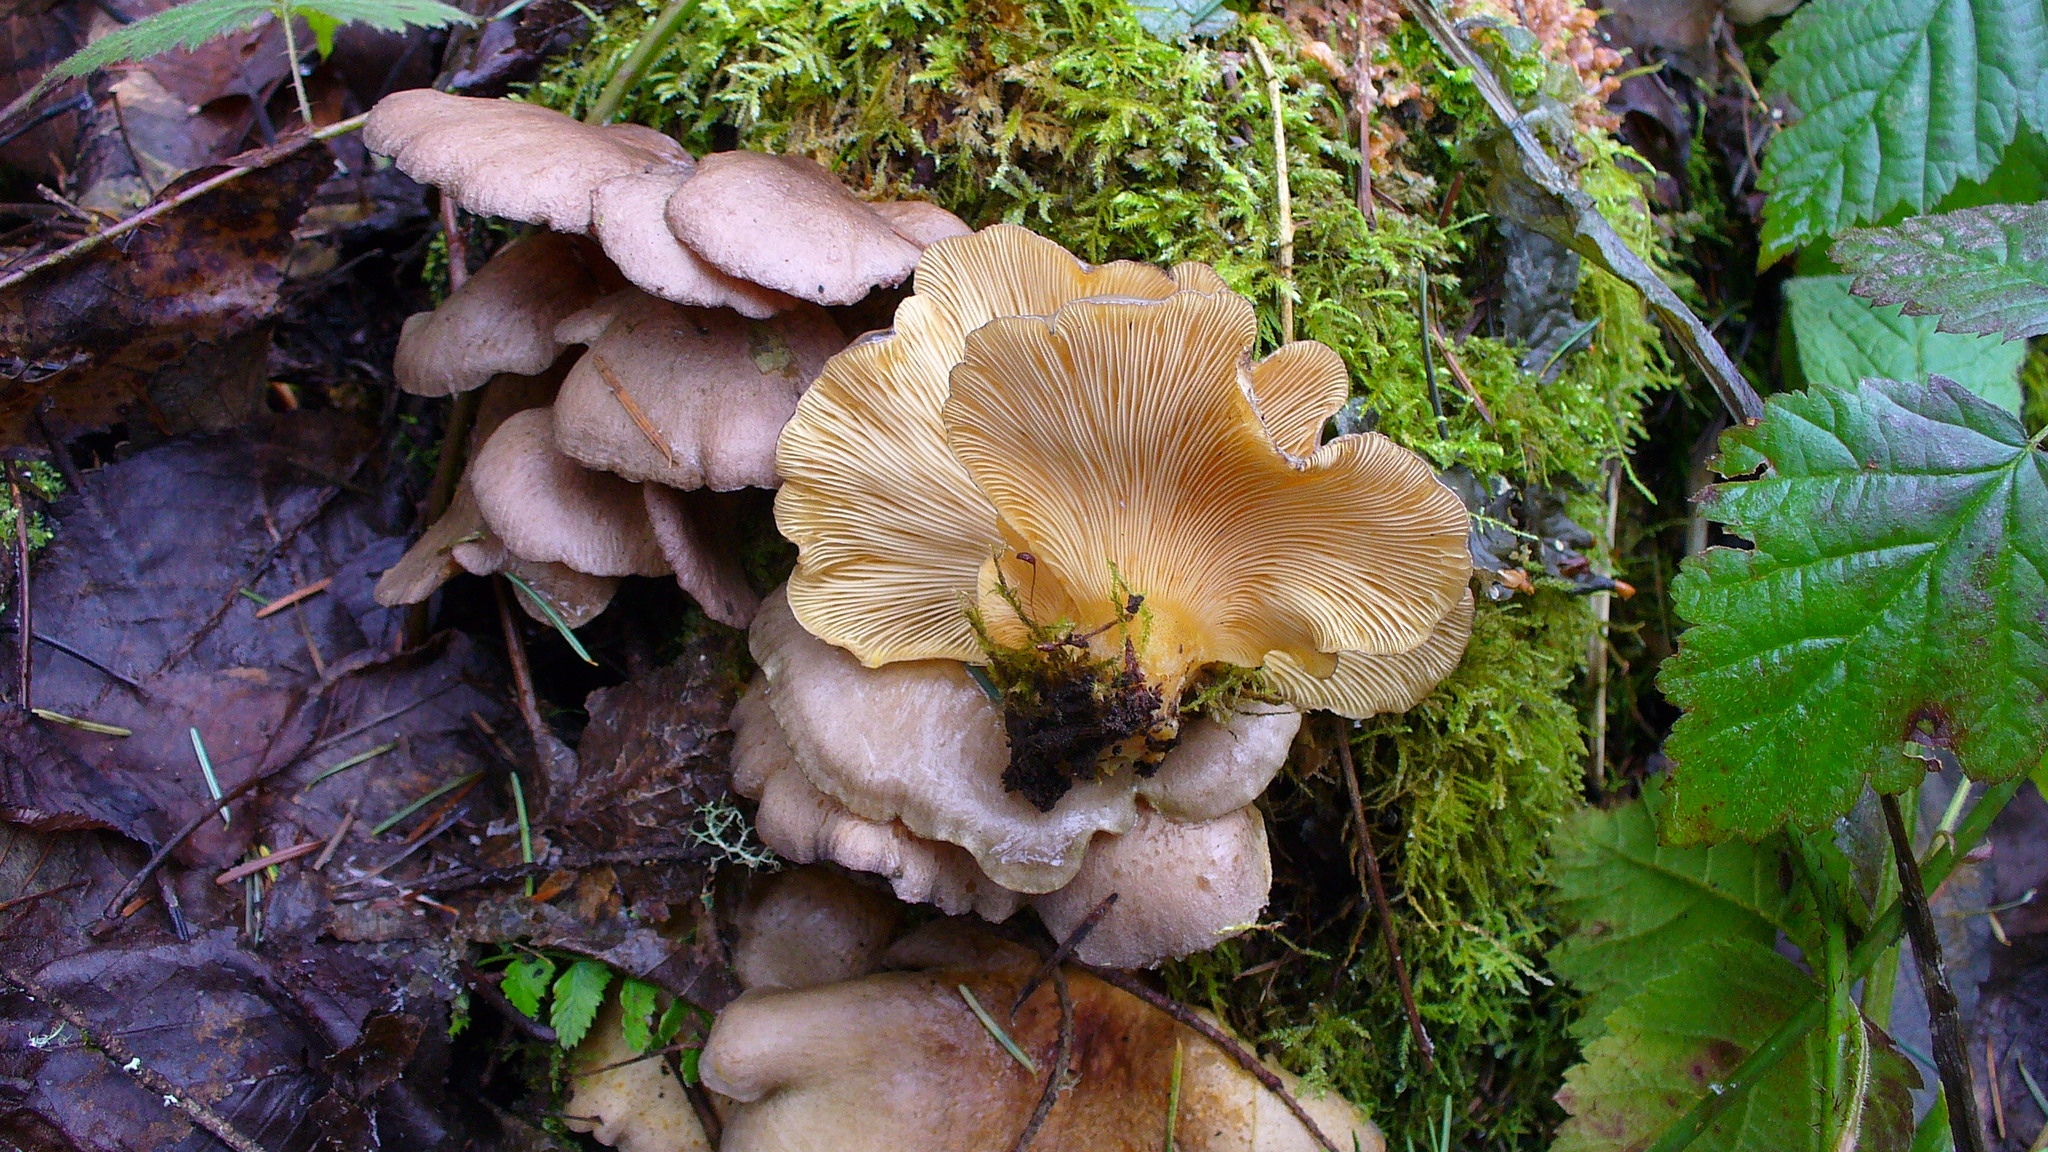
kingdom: Fungi
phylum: Basidiomycota
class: Agaricomycetes
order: Agaricales
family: Sarcomyxaceae
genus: Sarcomyxa
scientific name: Sarcomyxa serotina
